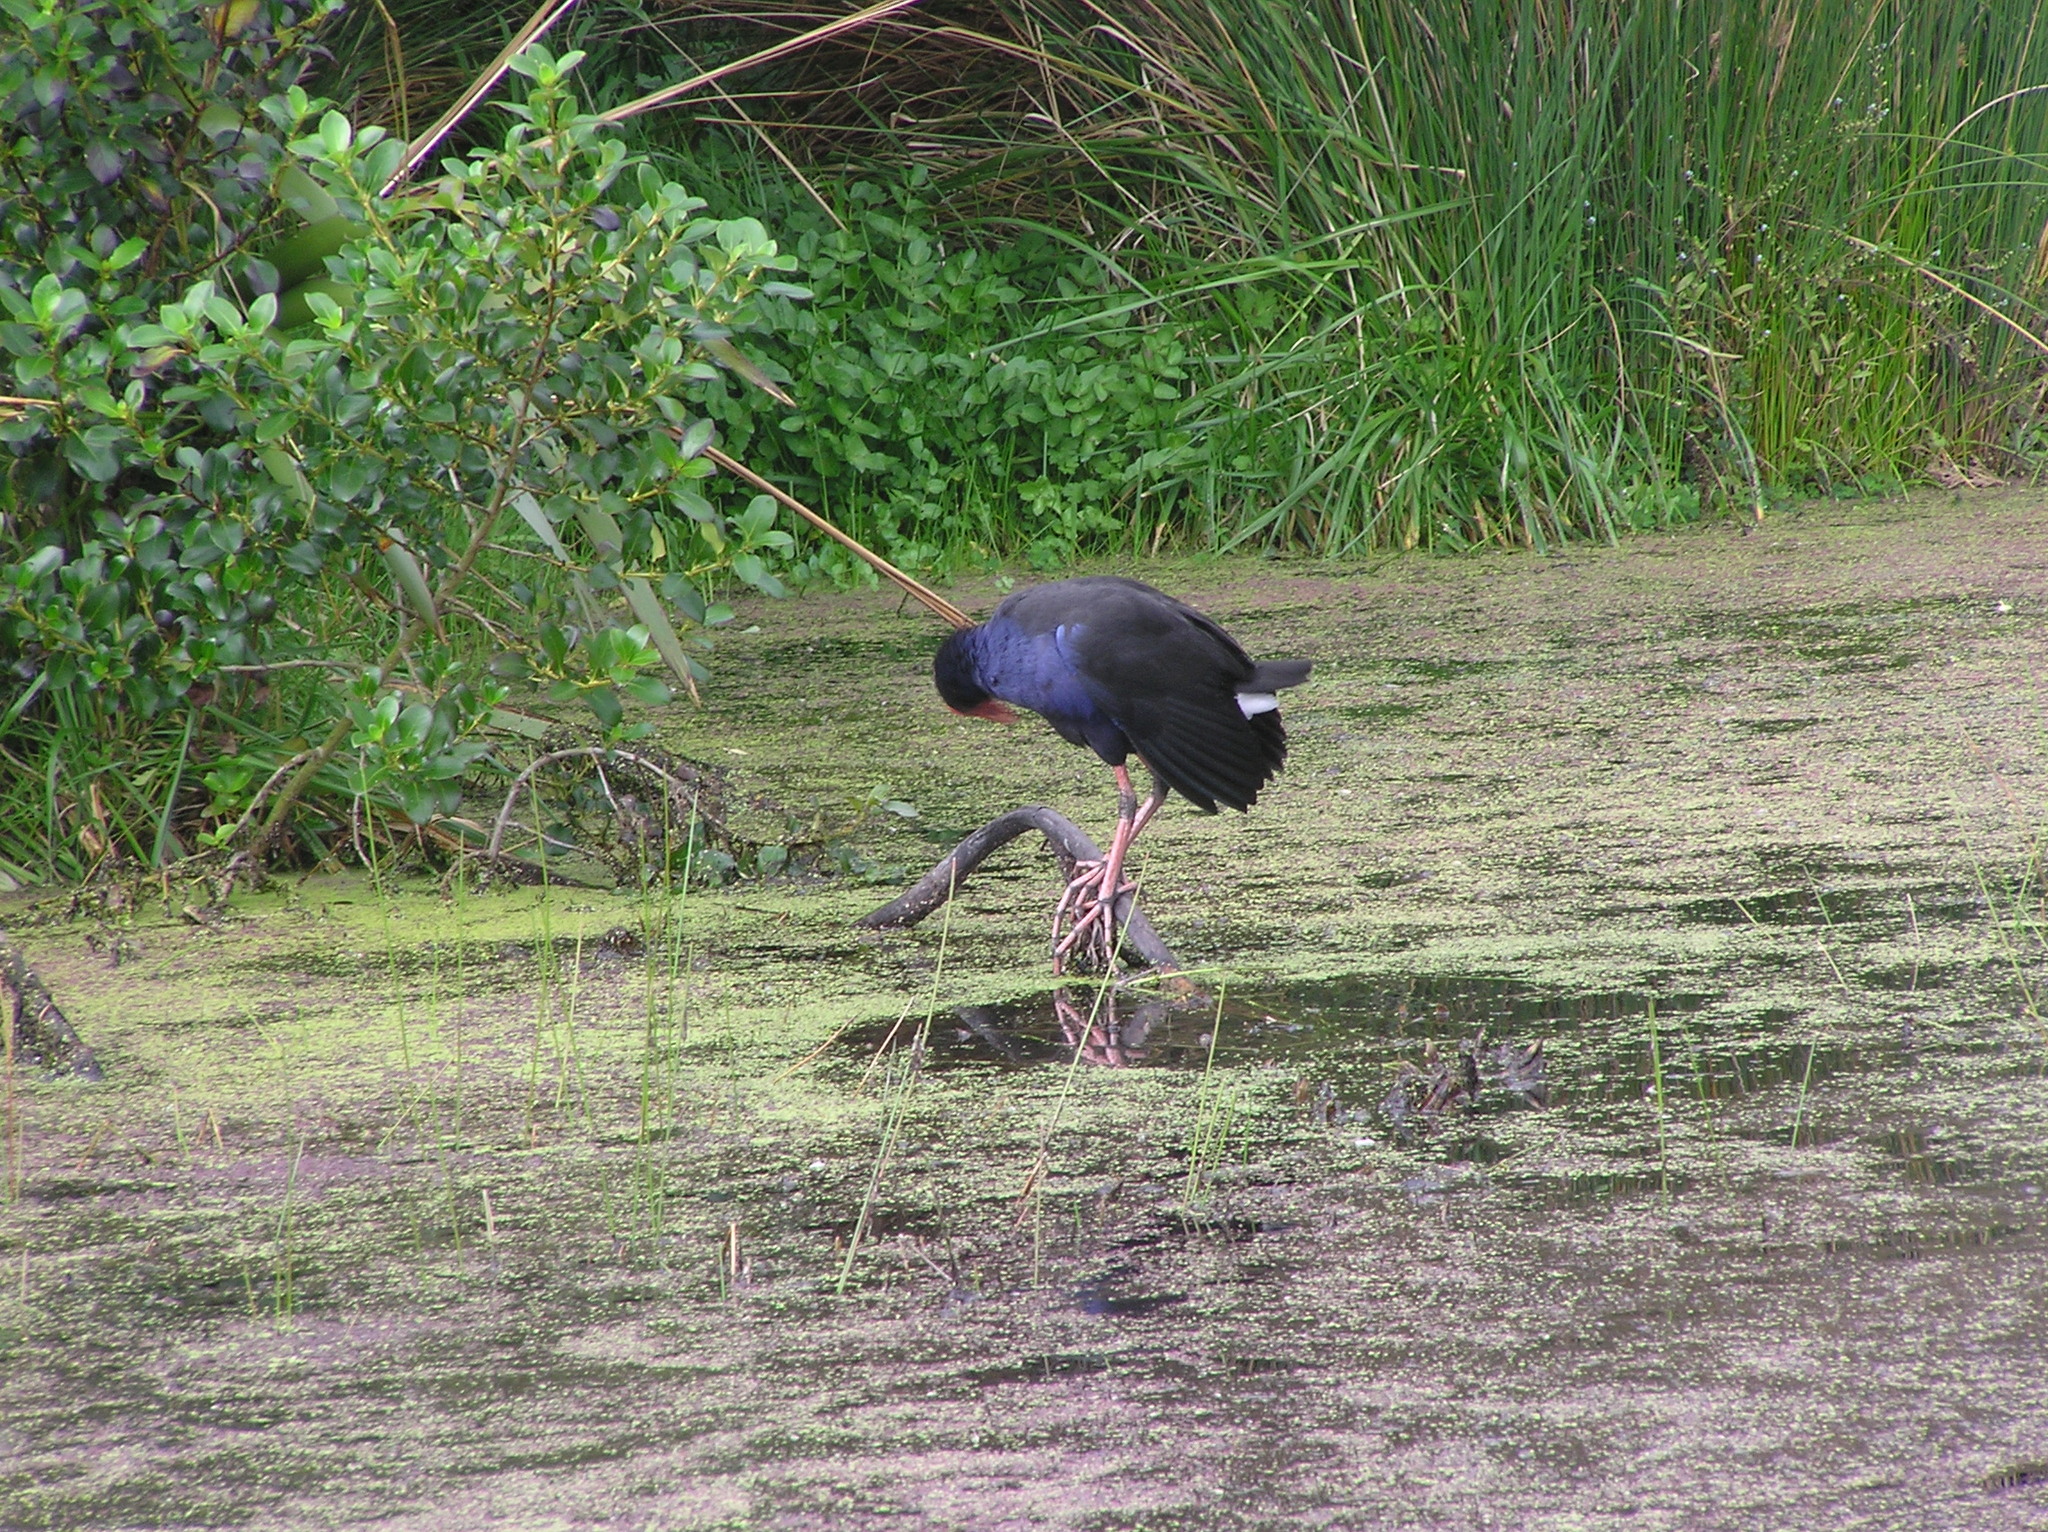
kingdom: Animalia
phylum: Chordata
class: Aves
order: Gruiformes
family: Rallidae
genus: Porphyrio
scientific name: Porphyrio melanotus
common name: Australasian swamphen
